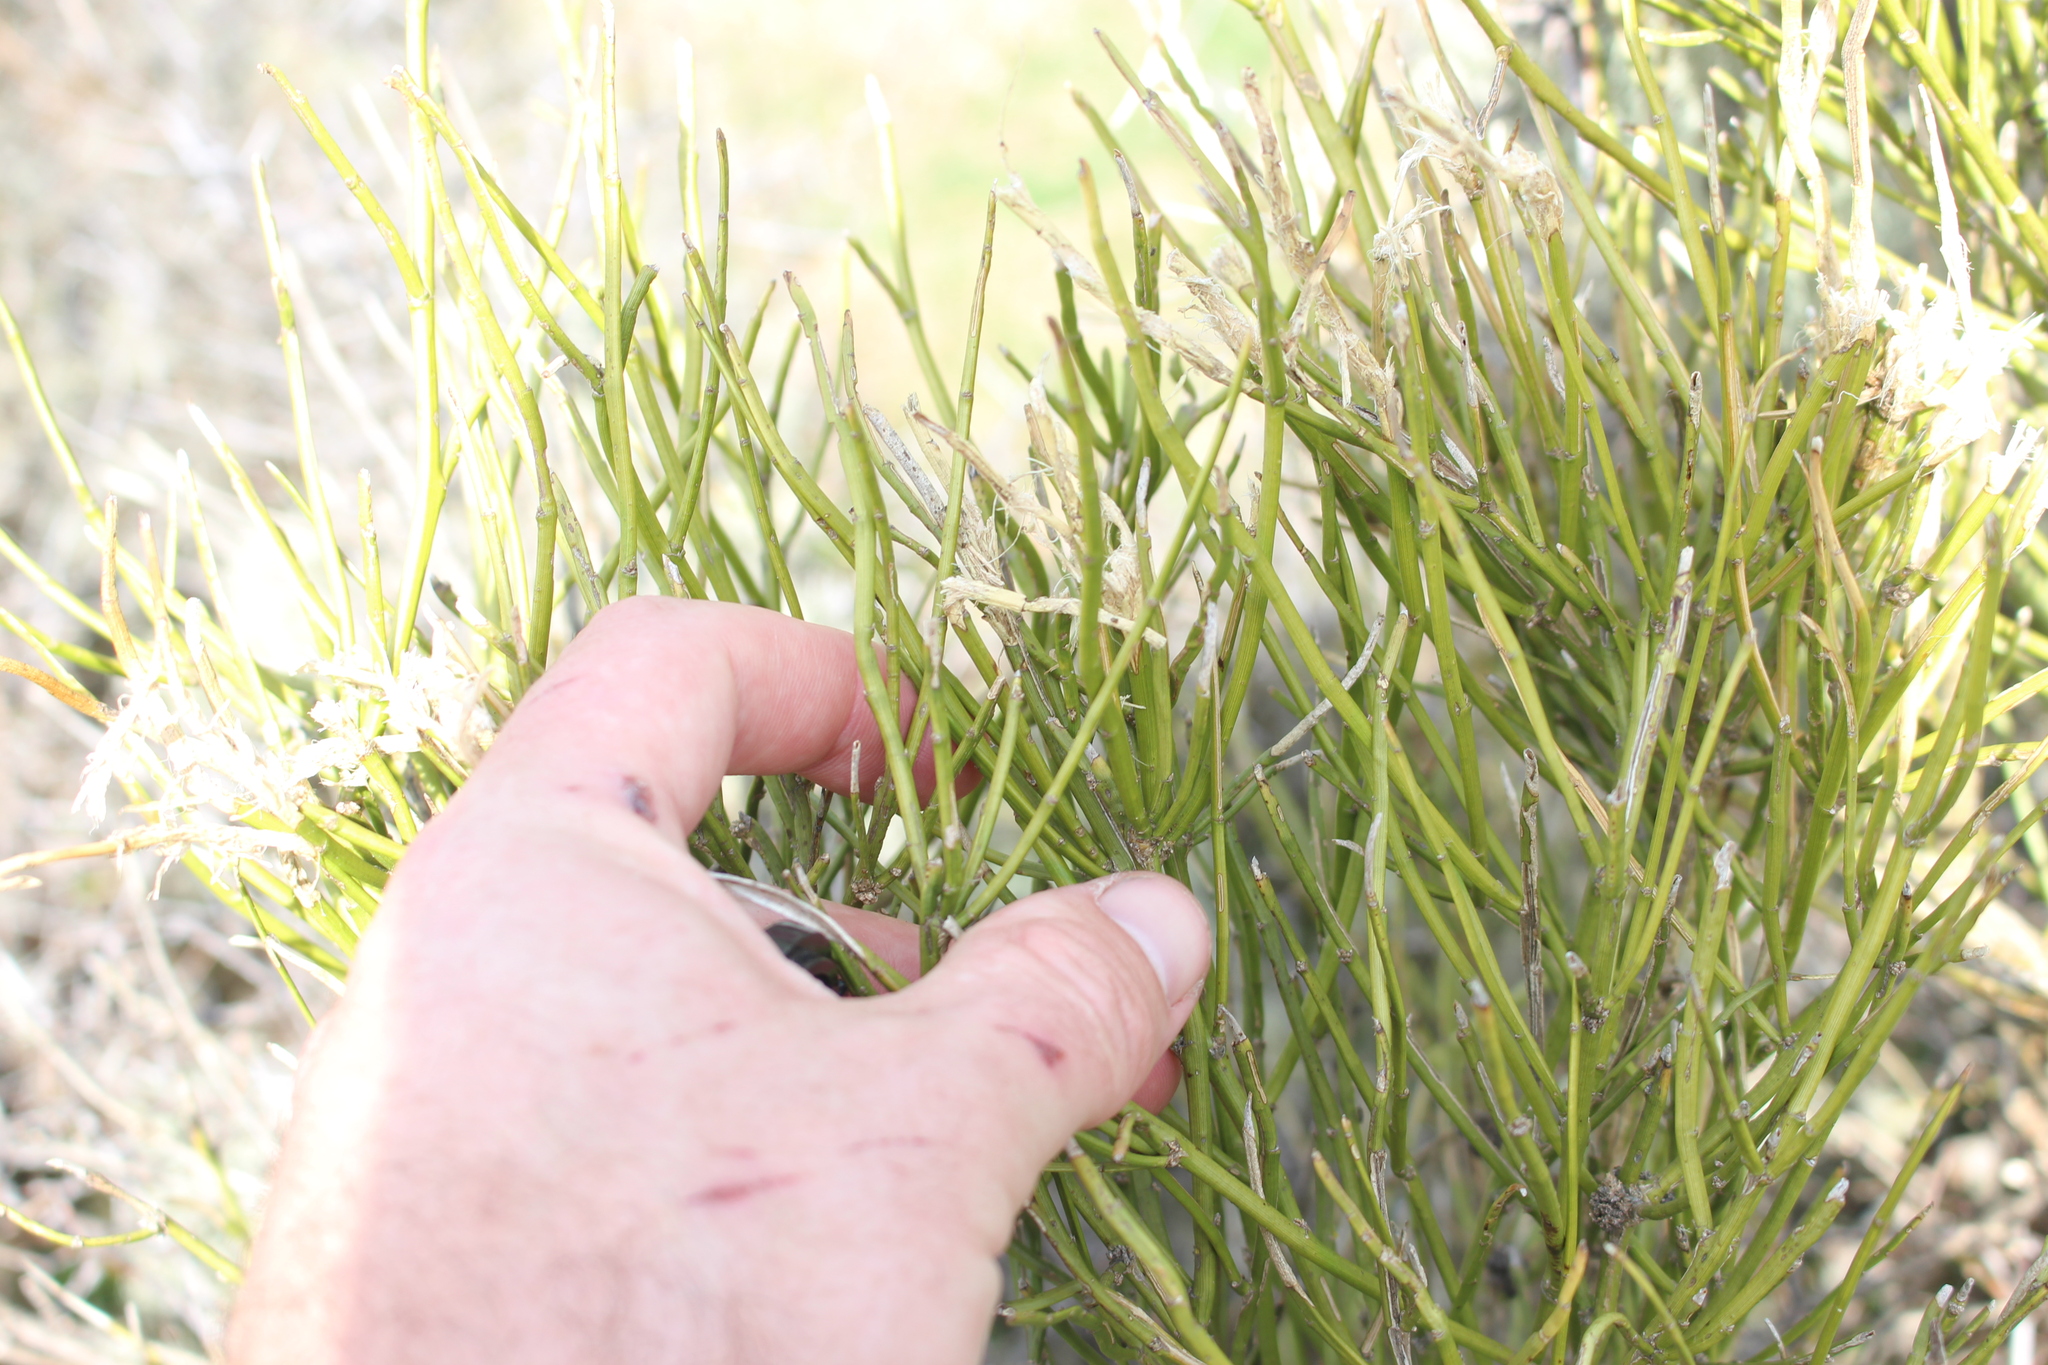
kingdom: Plantae
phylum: Tracheophyta
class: Magnoliopsida
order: Fabales
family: Fabaceae
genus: Carmichaelia
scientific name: Carmichaelia australis
